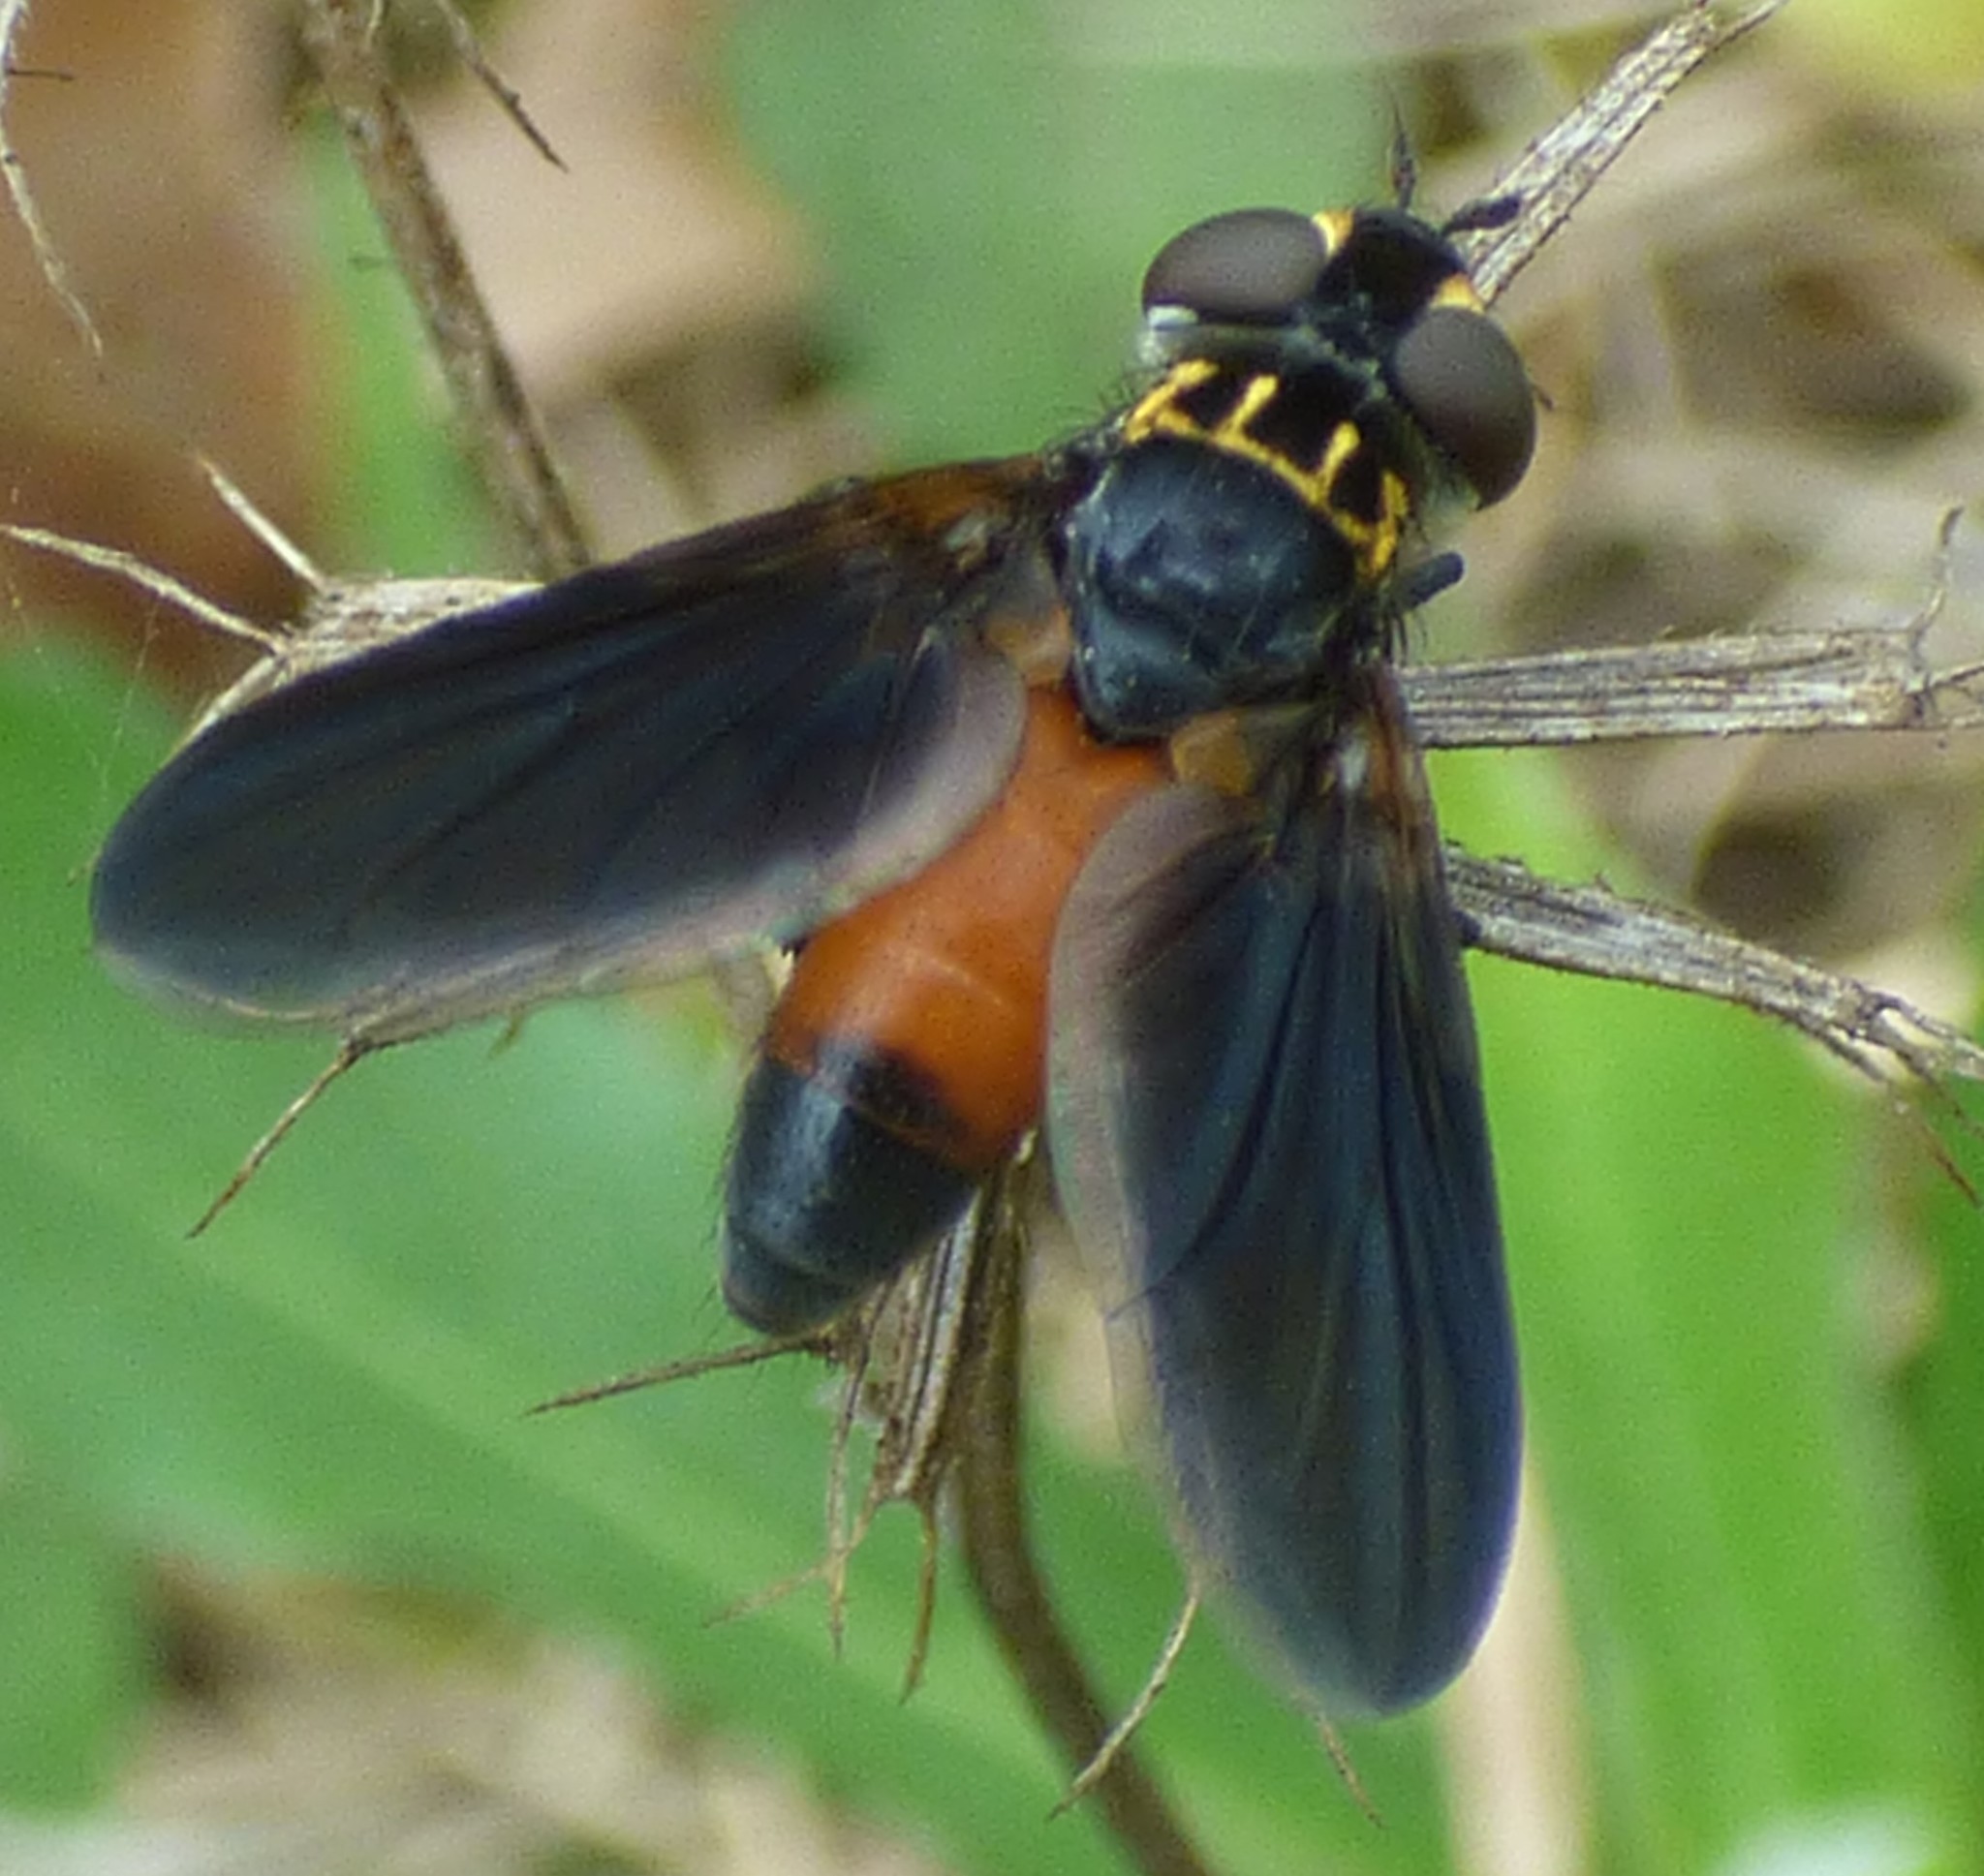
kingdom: Animalia
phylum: Arthropoda
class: Insecta
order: Diptera
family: Tachinidae
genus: Trichopoda
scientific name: Trichopoda pennipes
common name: Tachinid fly
